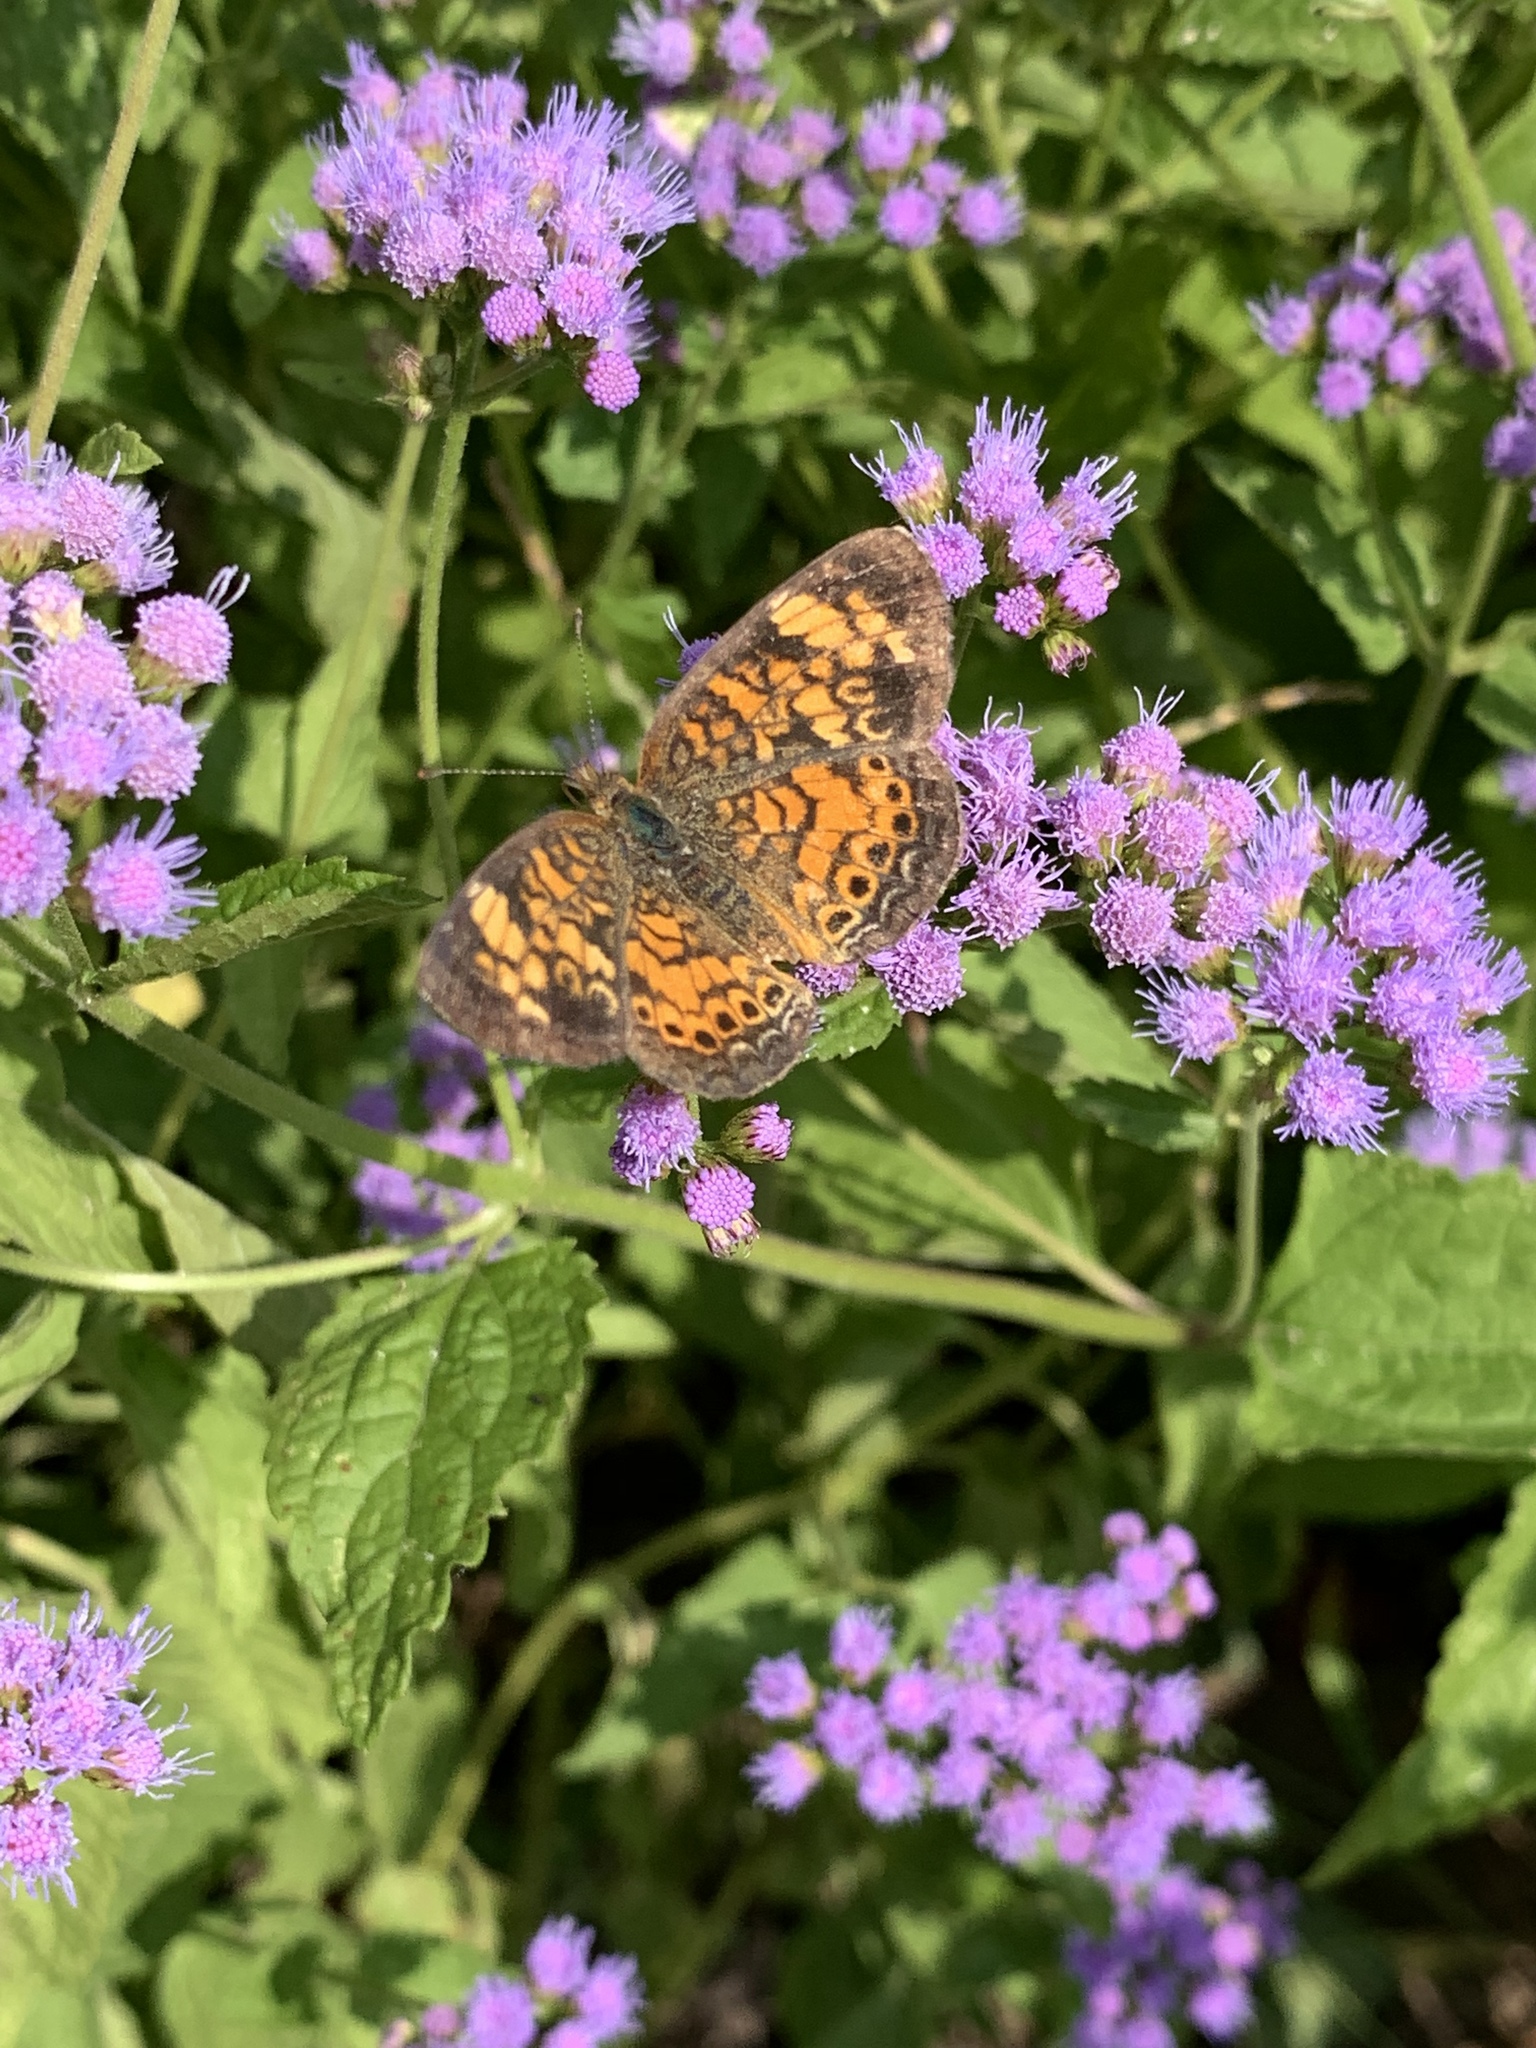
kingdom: Animalia
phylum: Arthropoda
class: Insecta
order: Lepidoptera
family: Nymphalidae
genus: Phyciodes
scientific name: Phyciodes tharos
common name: Pearl crescent
